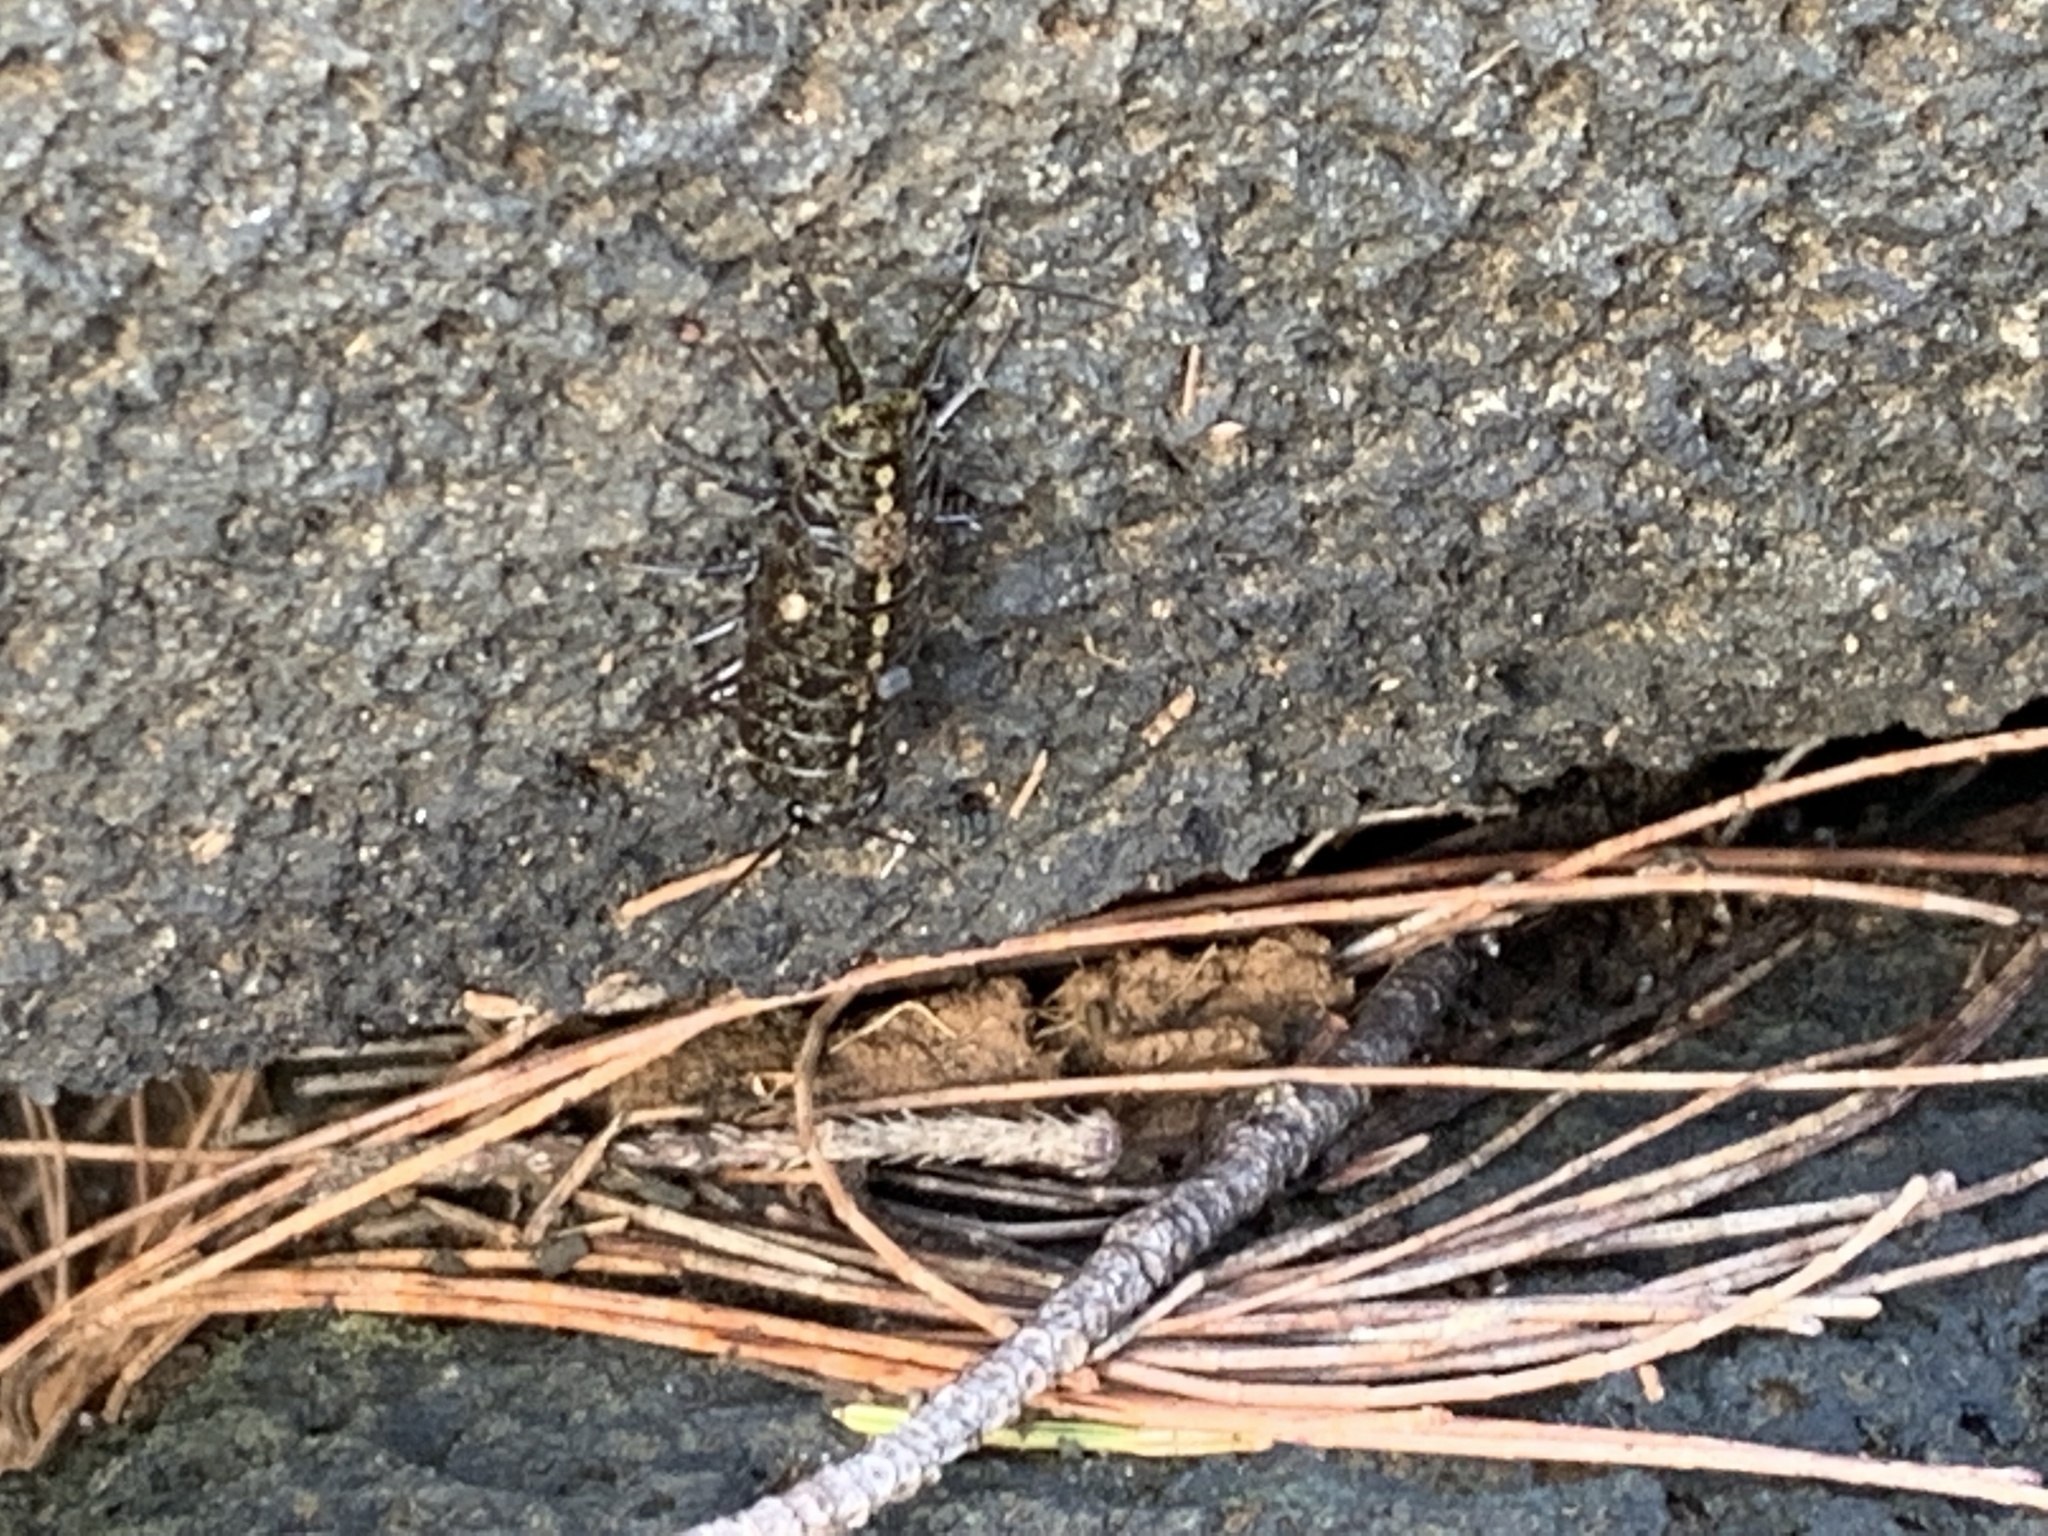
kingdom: Animalia
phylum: Arthropoda
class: Malacostraca
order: Isopoda
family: Ligiidae
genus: Ligia
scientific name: Ligia hawaiensis
